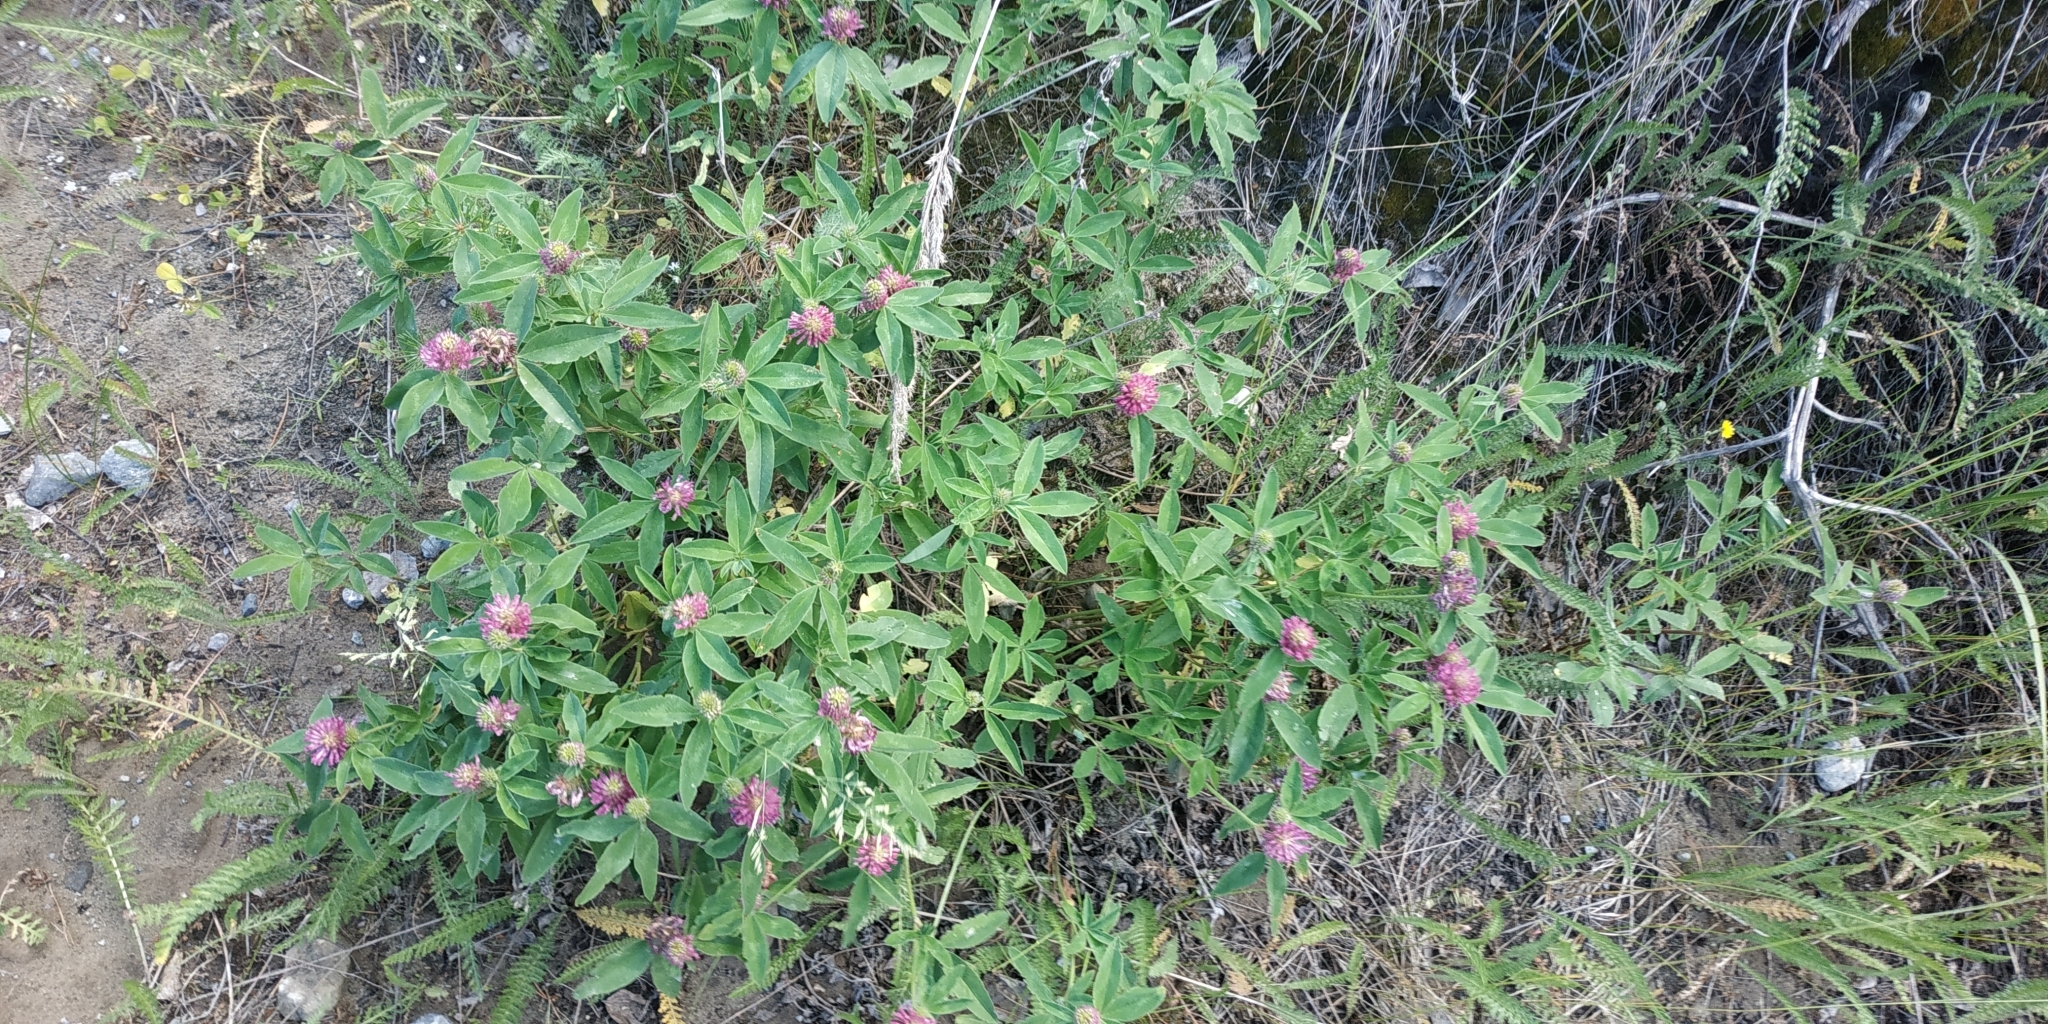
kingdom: Plantae
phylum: Tracheophyta
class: Magnoliopsida
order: Fabales
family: Fabaceae
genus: Trifolium
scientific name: Trifolium medium
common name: Zigzag clover
